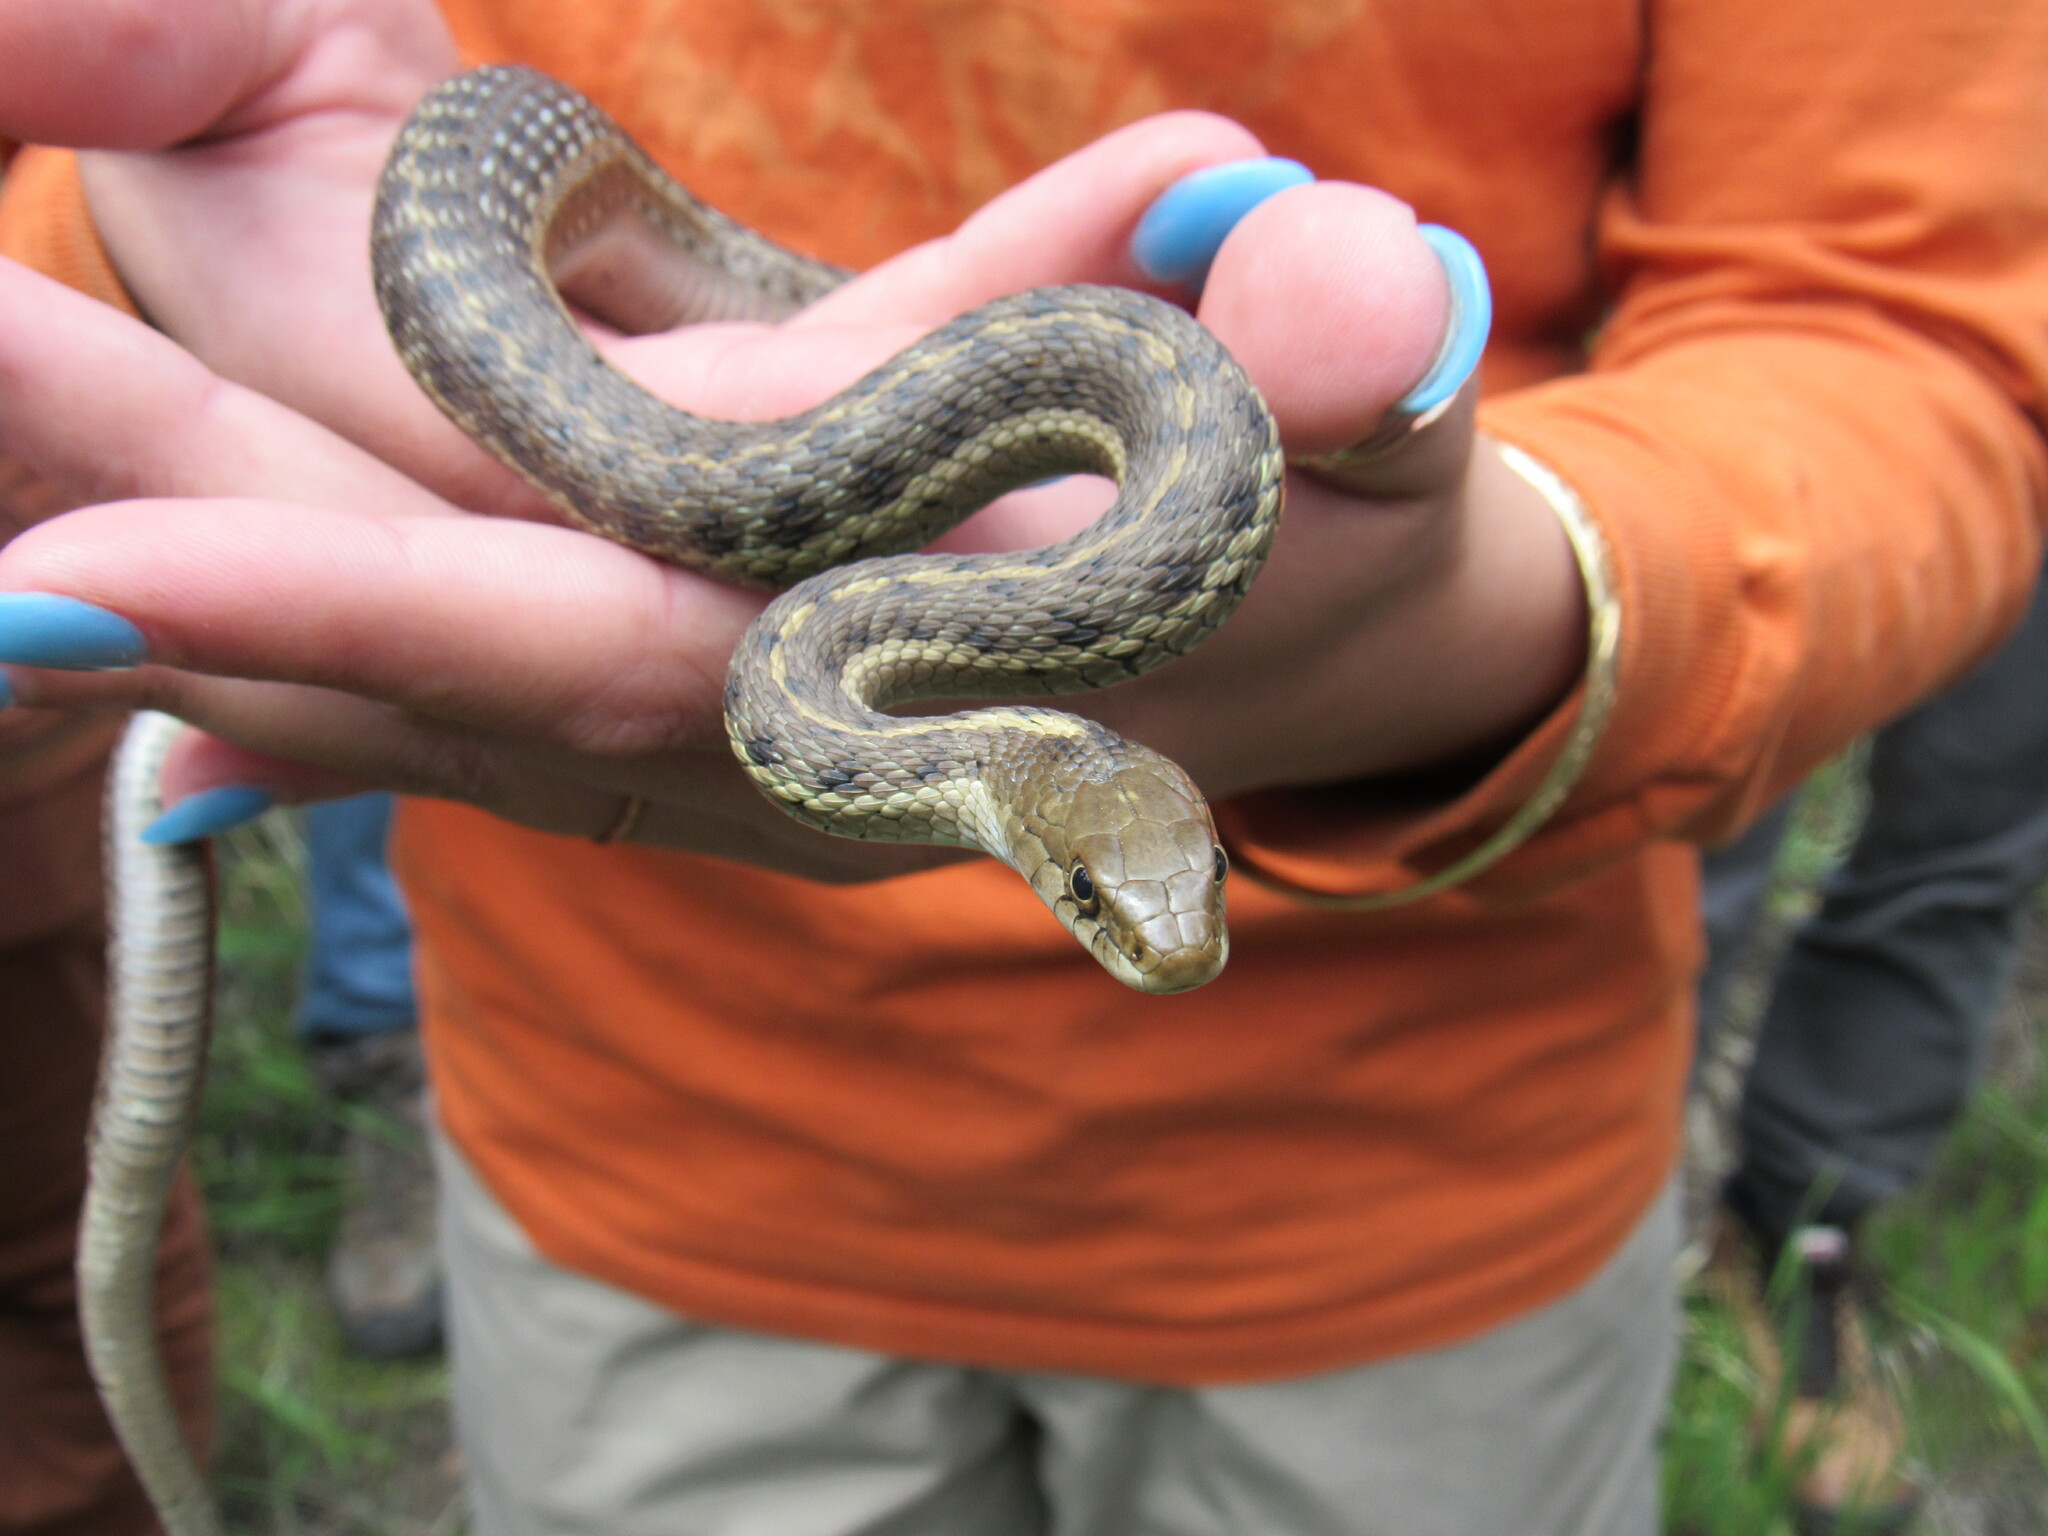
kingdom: Animalia
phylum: Chordata
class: Squamata
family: Colubridae
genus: Thamnophis
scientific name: Thamnophis elegans
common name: Western terrestrial garter snake
